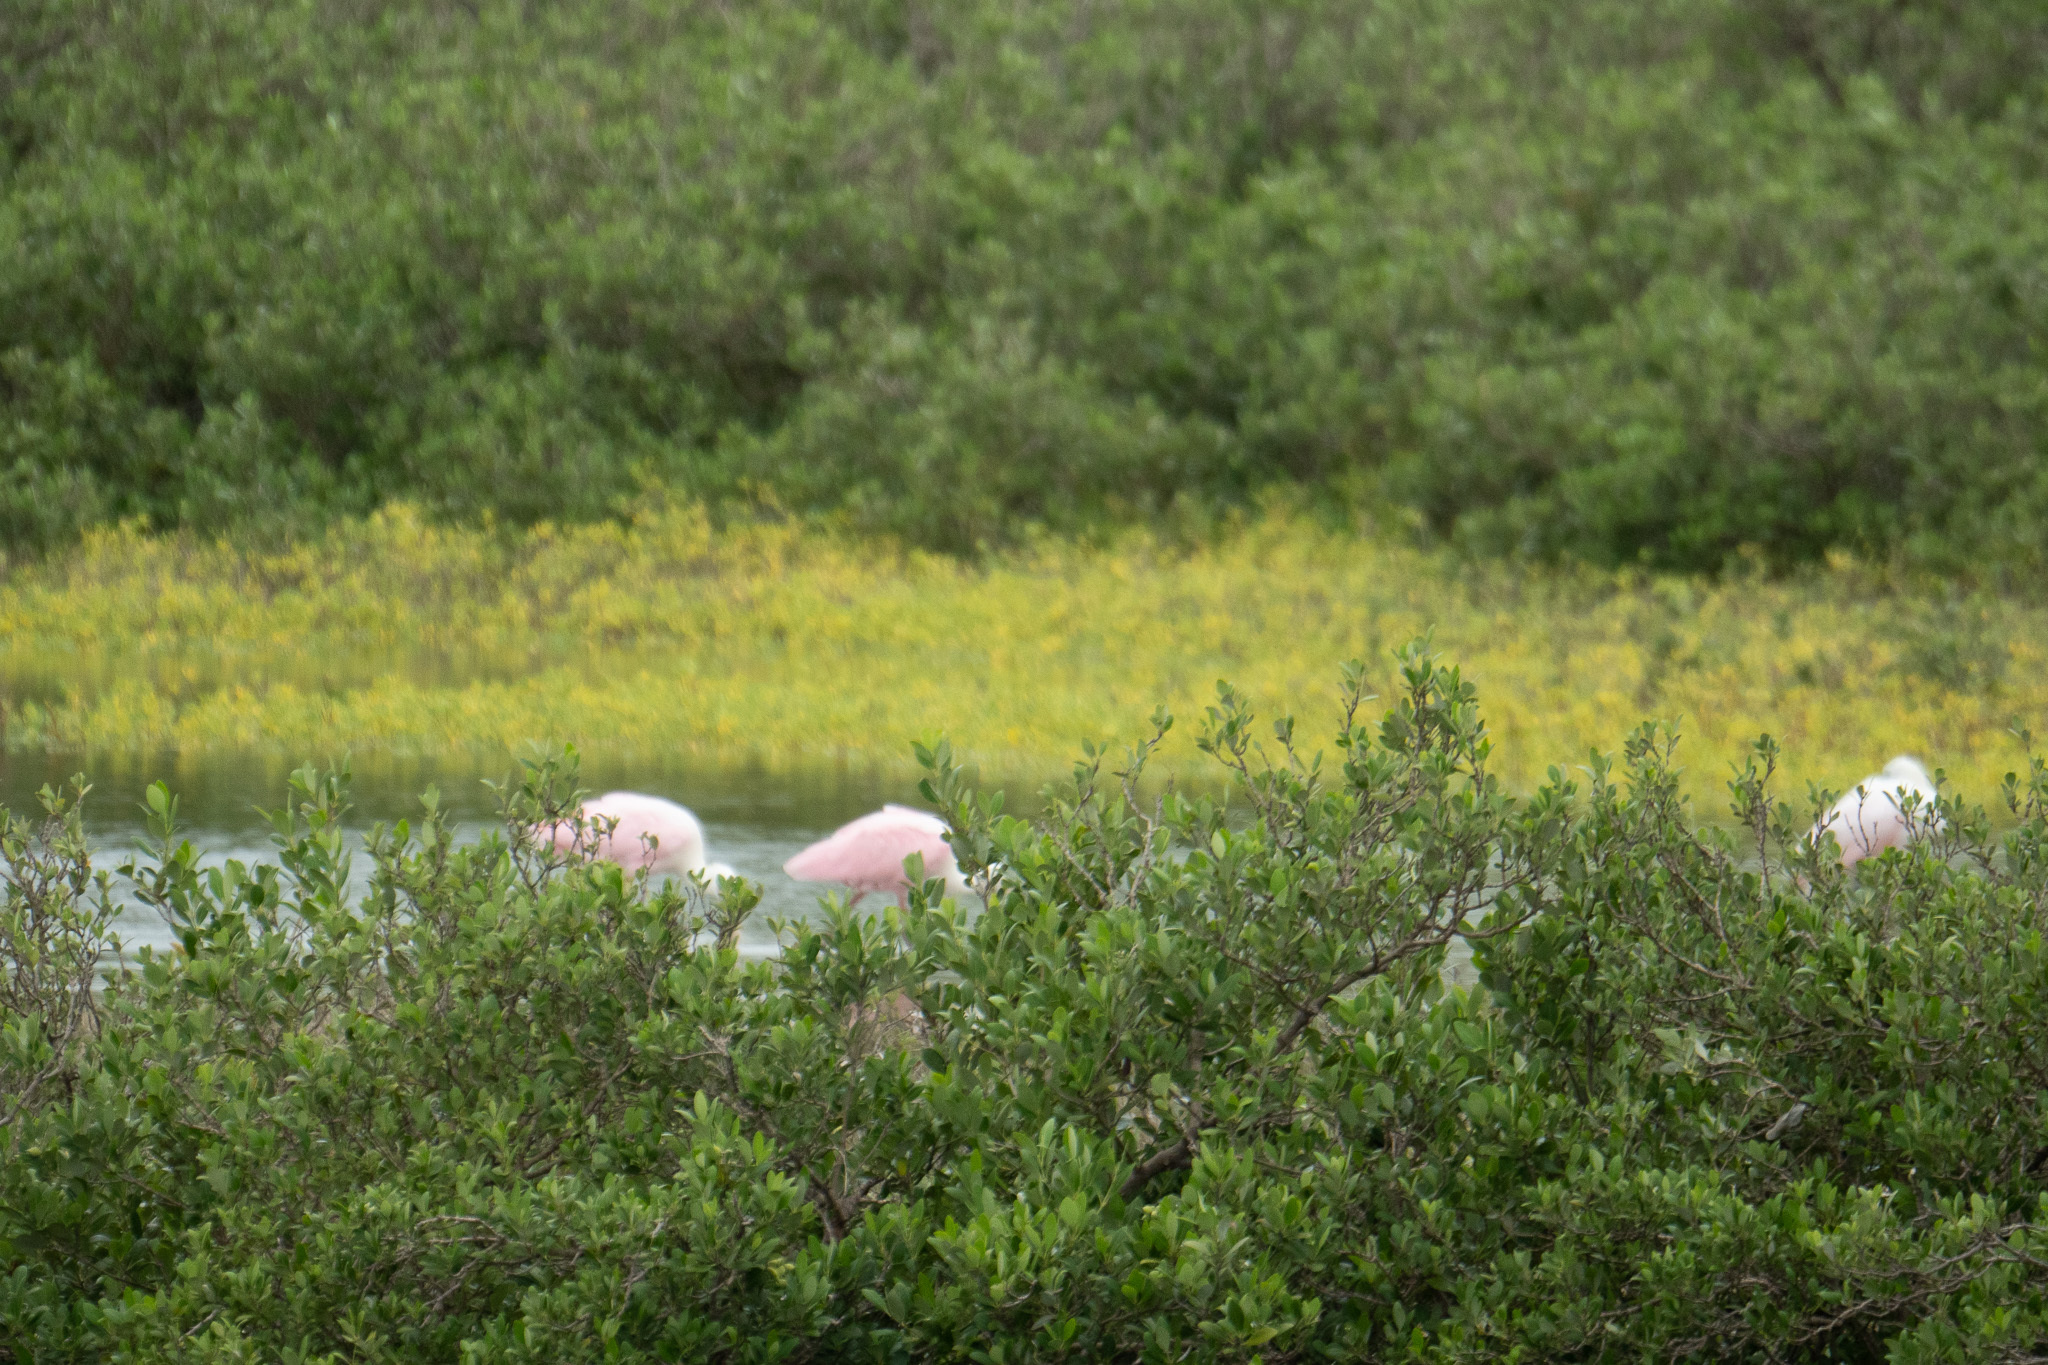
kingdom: Animalia
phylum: Chordata
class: Aves
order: Pelecaniformes
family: Threskiornithidae
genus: Platalea
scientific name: Platalea ajaja
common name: Roseate spoonbill
